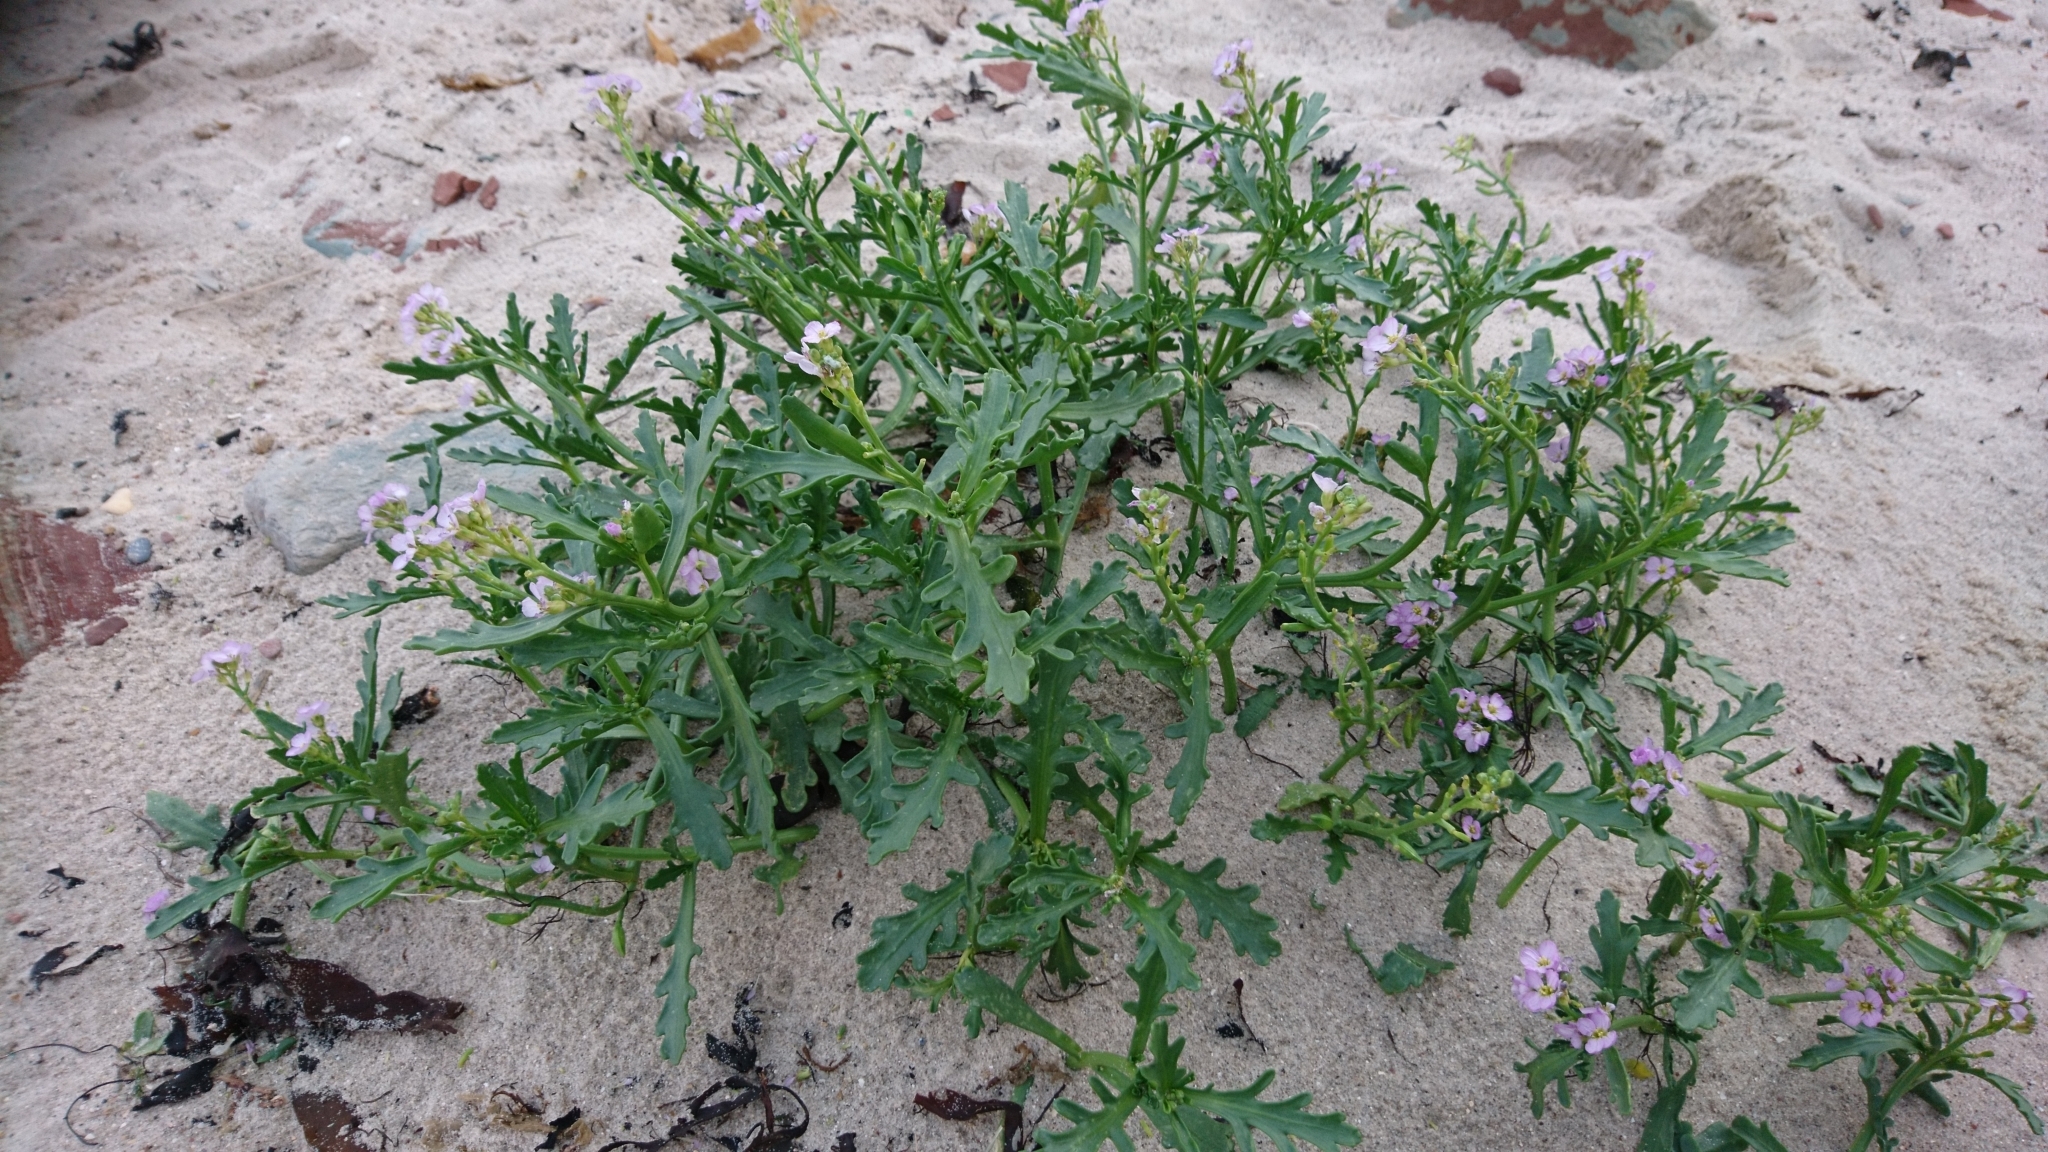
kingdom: Plantae
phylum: Tracheophyta
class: Magnoliopsida
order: Brassicales
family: Brassicaceae
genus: Cakile
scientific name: Cakile maritima
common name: Sea rocket
